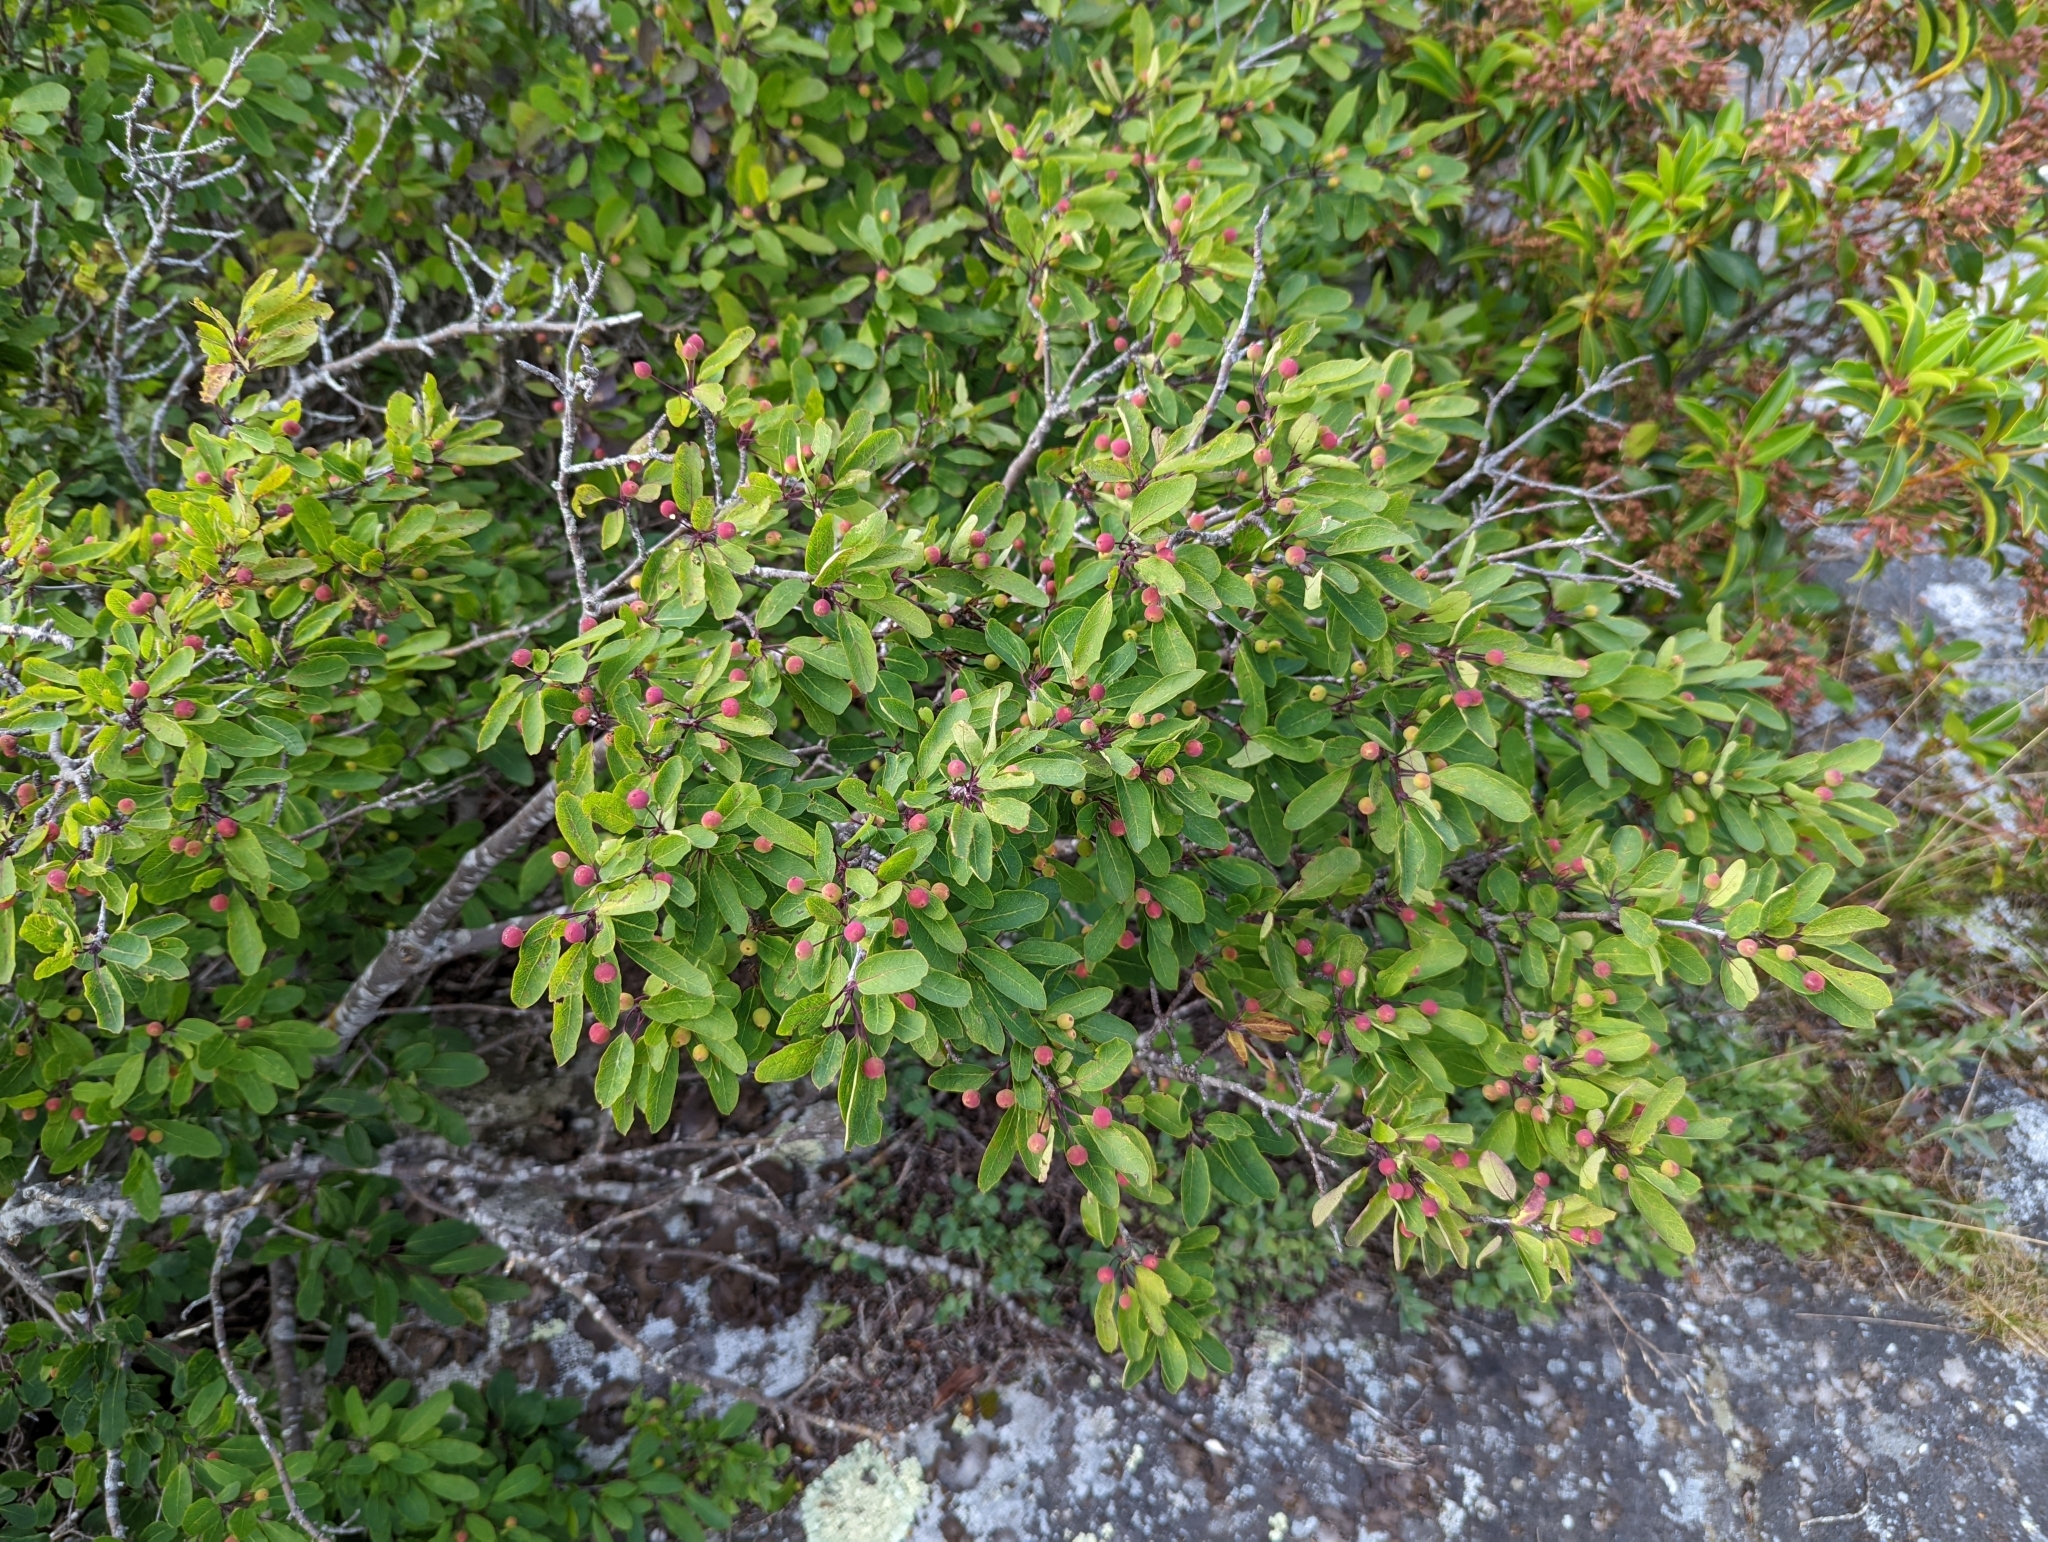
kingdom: Plantae
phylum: Tracheophyta
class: Magnoliopsida
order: Aquifoliales
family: Aquifoliaceae
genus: Ilex
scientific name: Ilex mucronata
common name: Catberry
